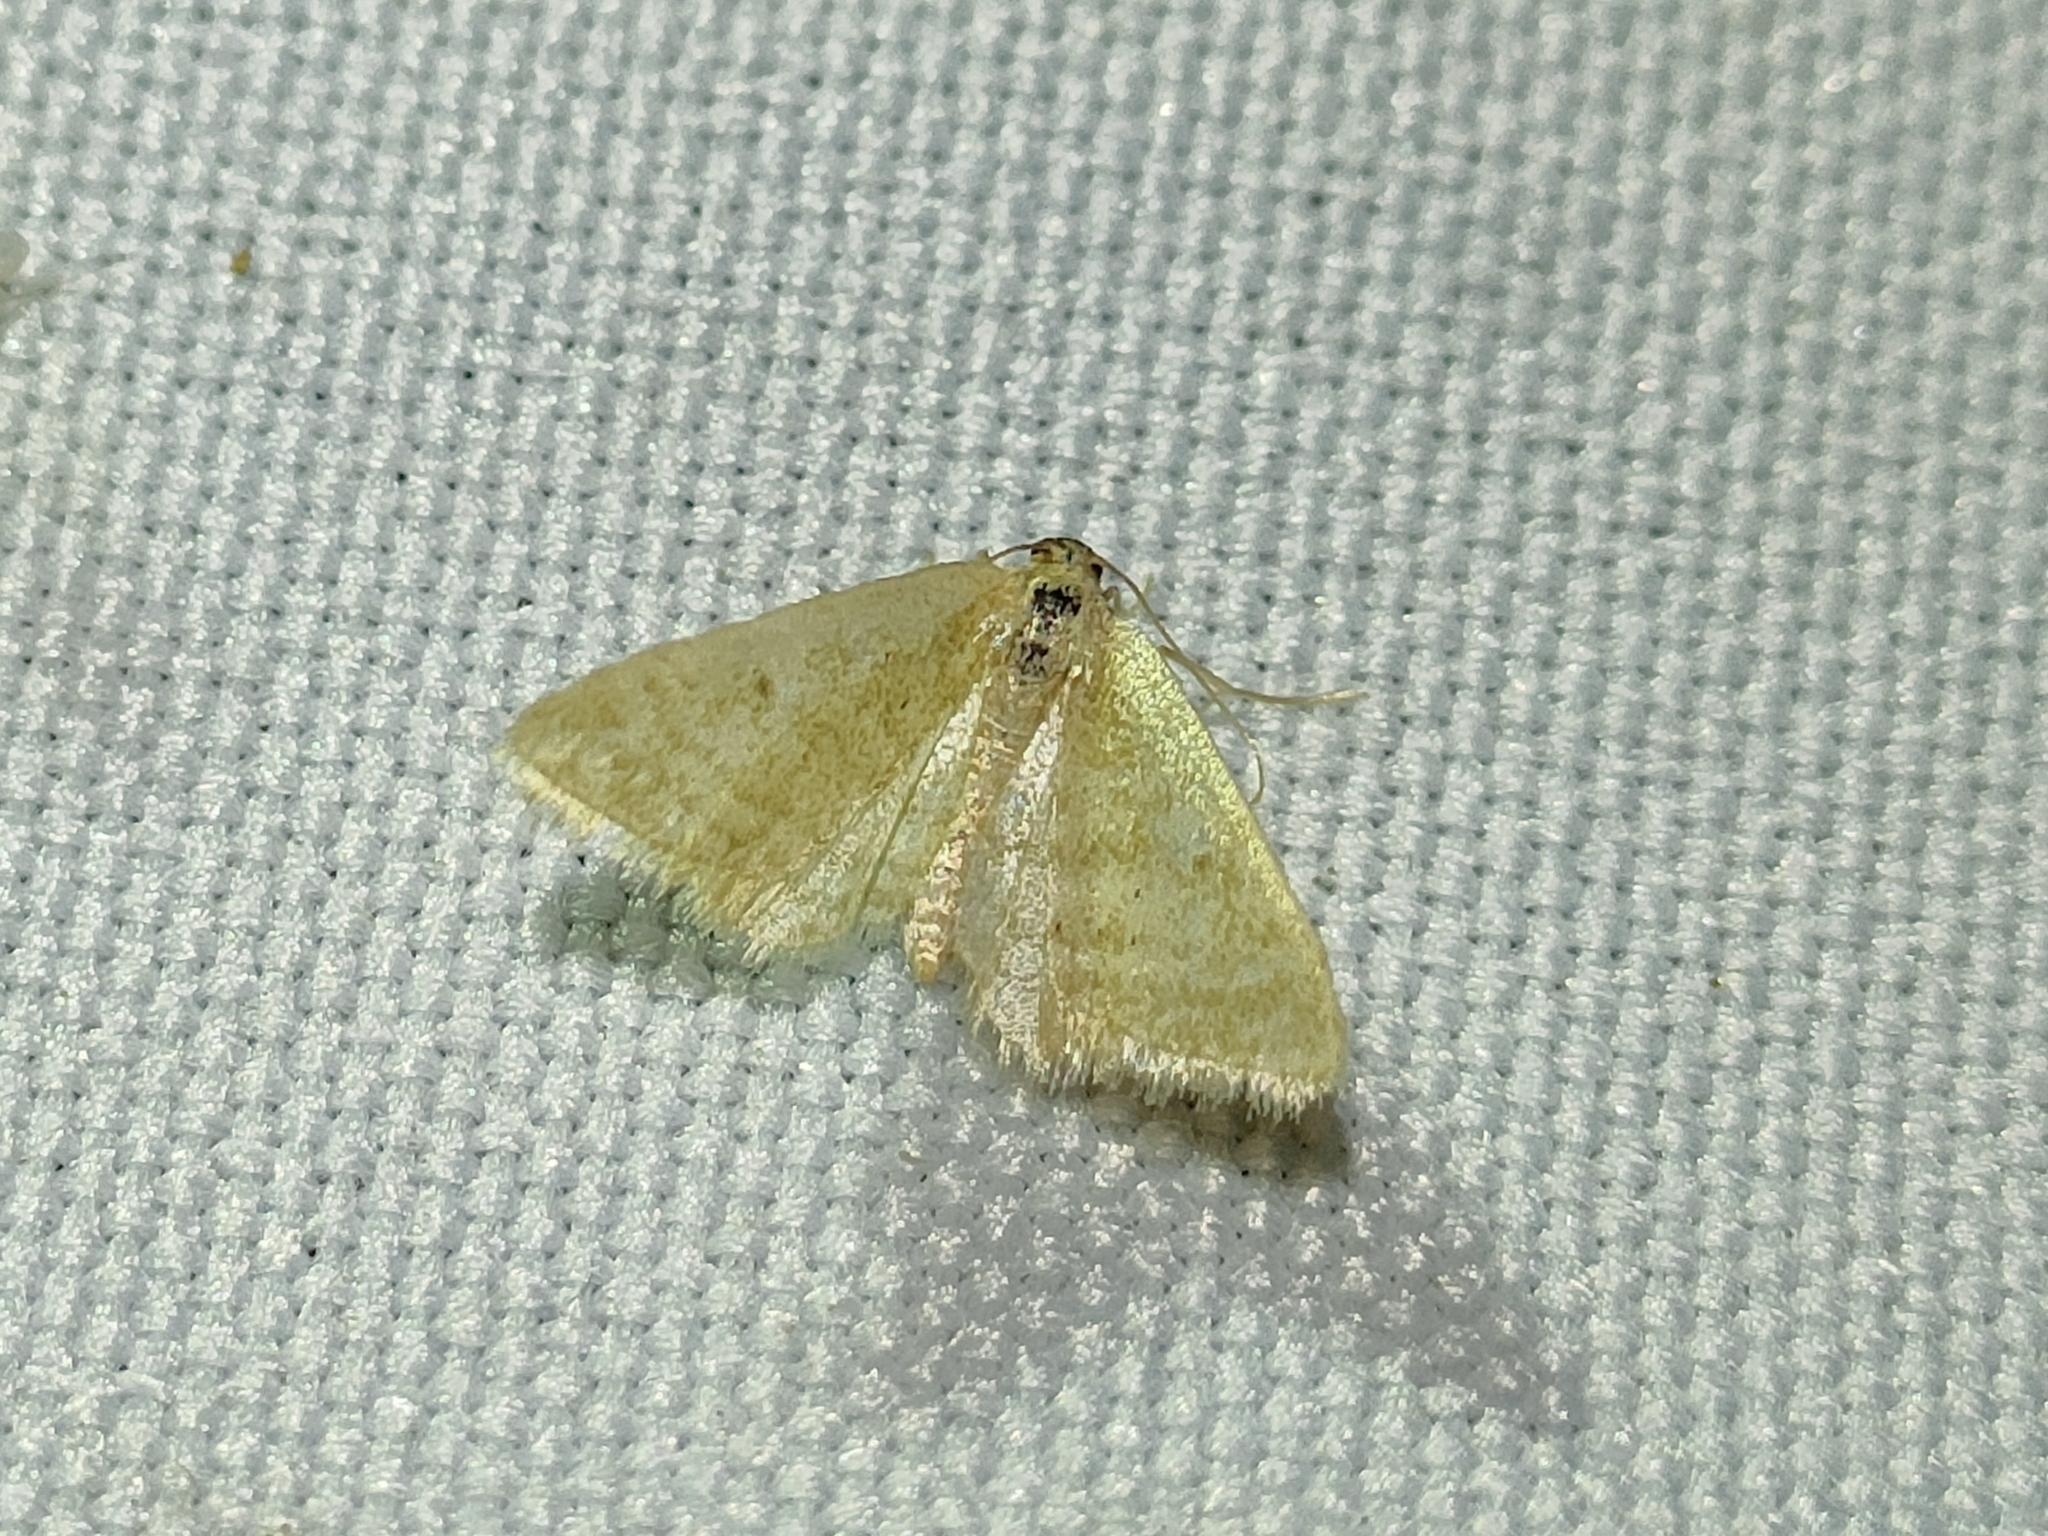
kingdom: Animalia
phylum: Arthropoda
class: Insecta
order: Lepidoptera
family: Geometridae
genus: Idaea
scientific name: Idaea alicantaria
